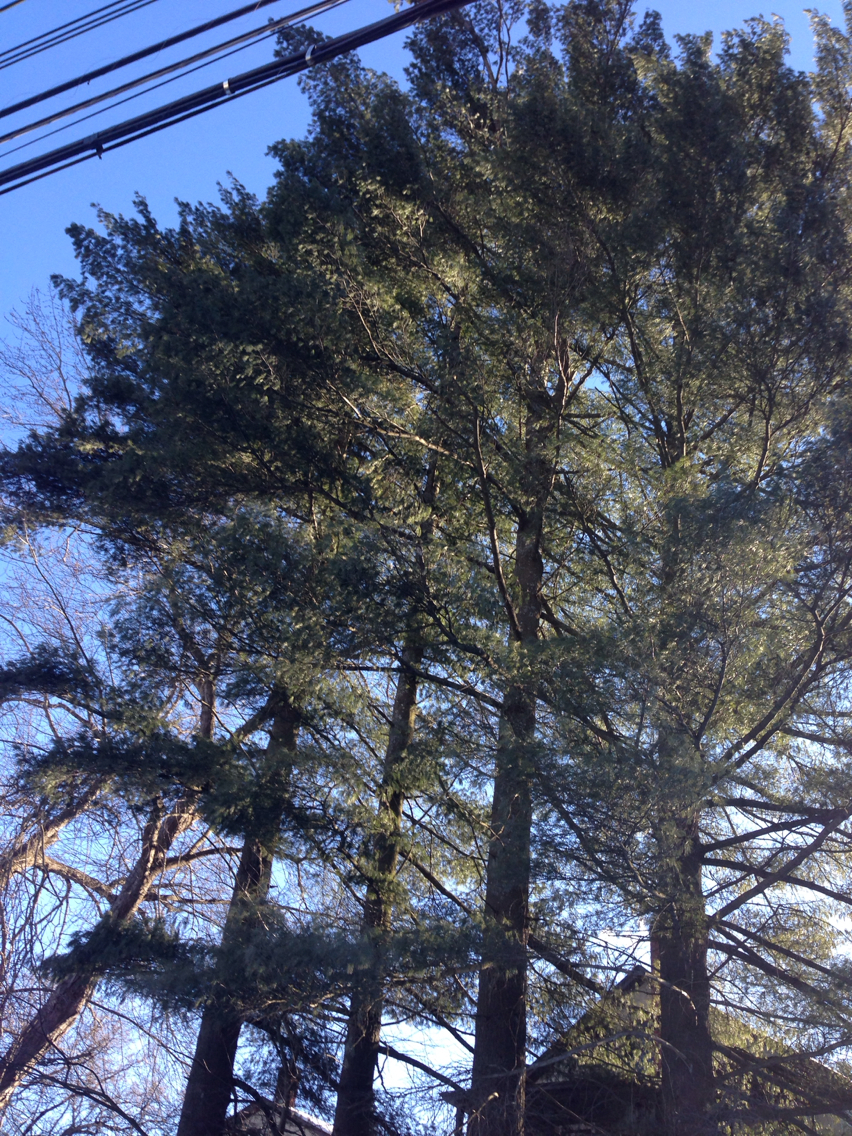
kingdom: Plantae
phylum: Tracheophyta
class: Pinopsida
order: Pinales
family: Pinaceae
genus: Pinus
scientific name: Pinus strobus
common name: Weymouth pine
